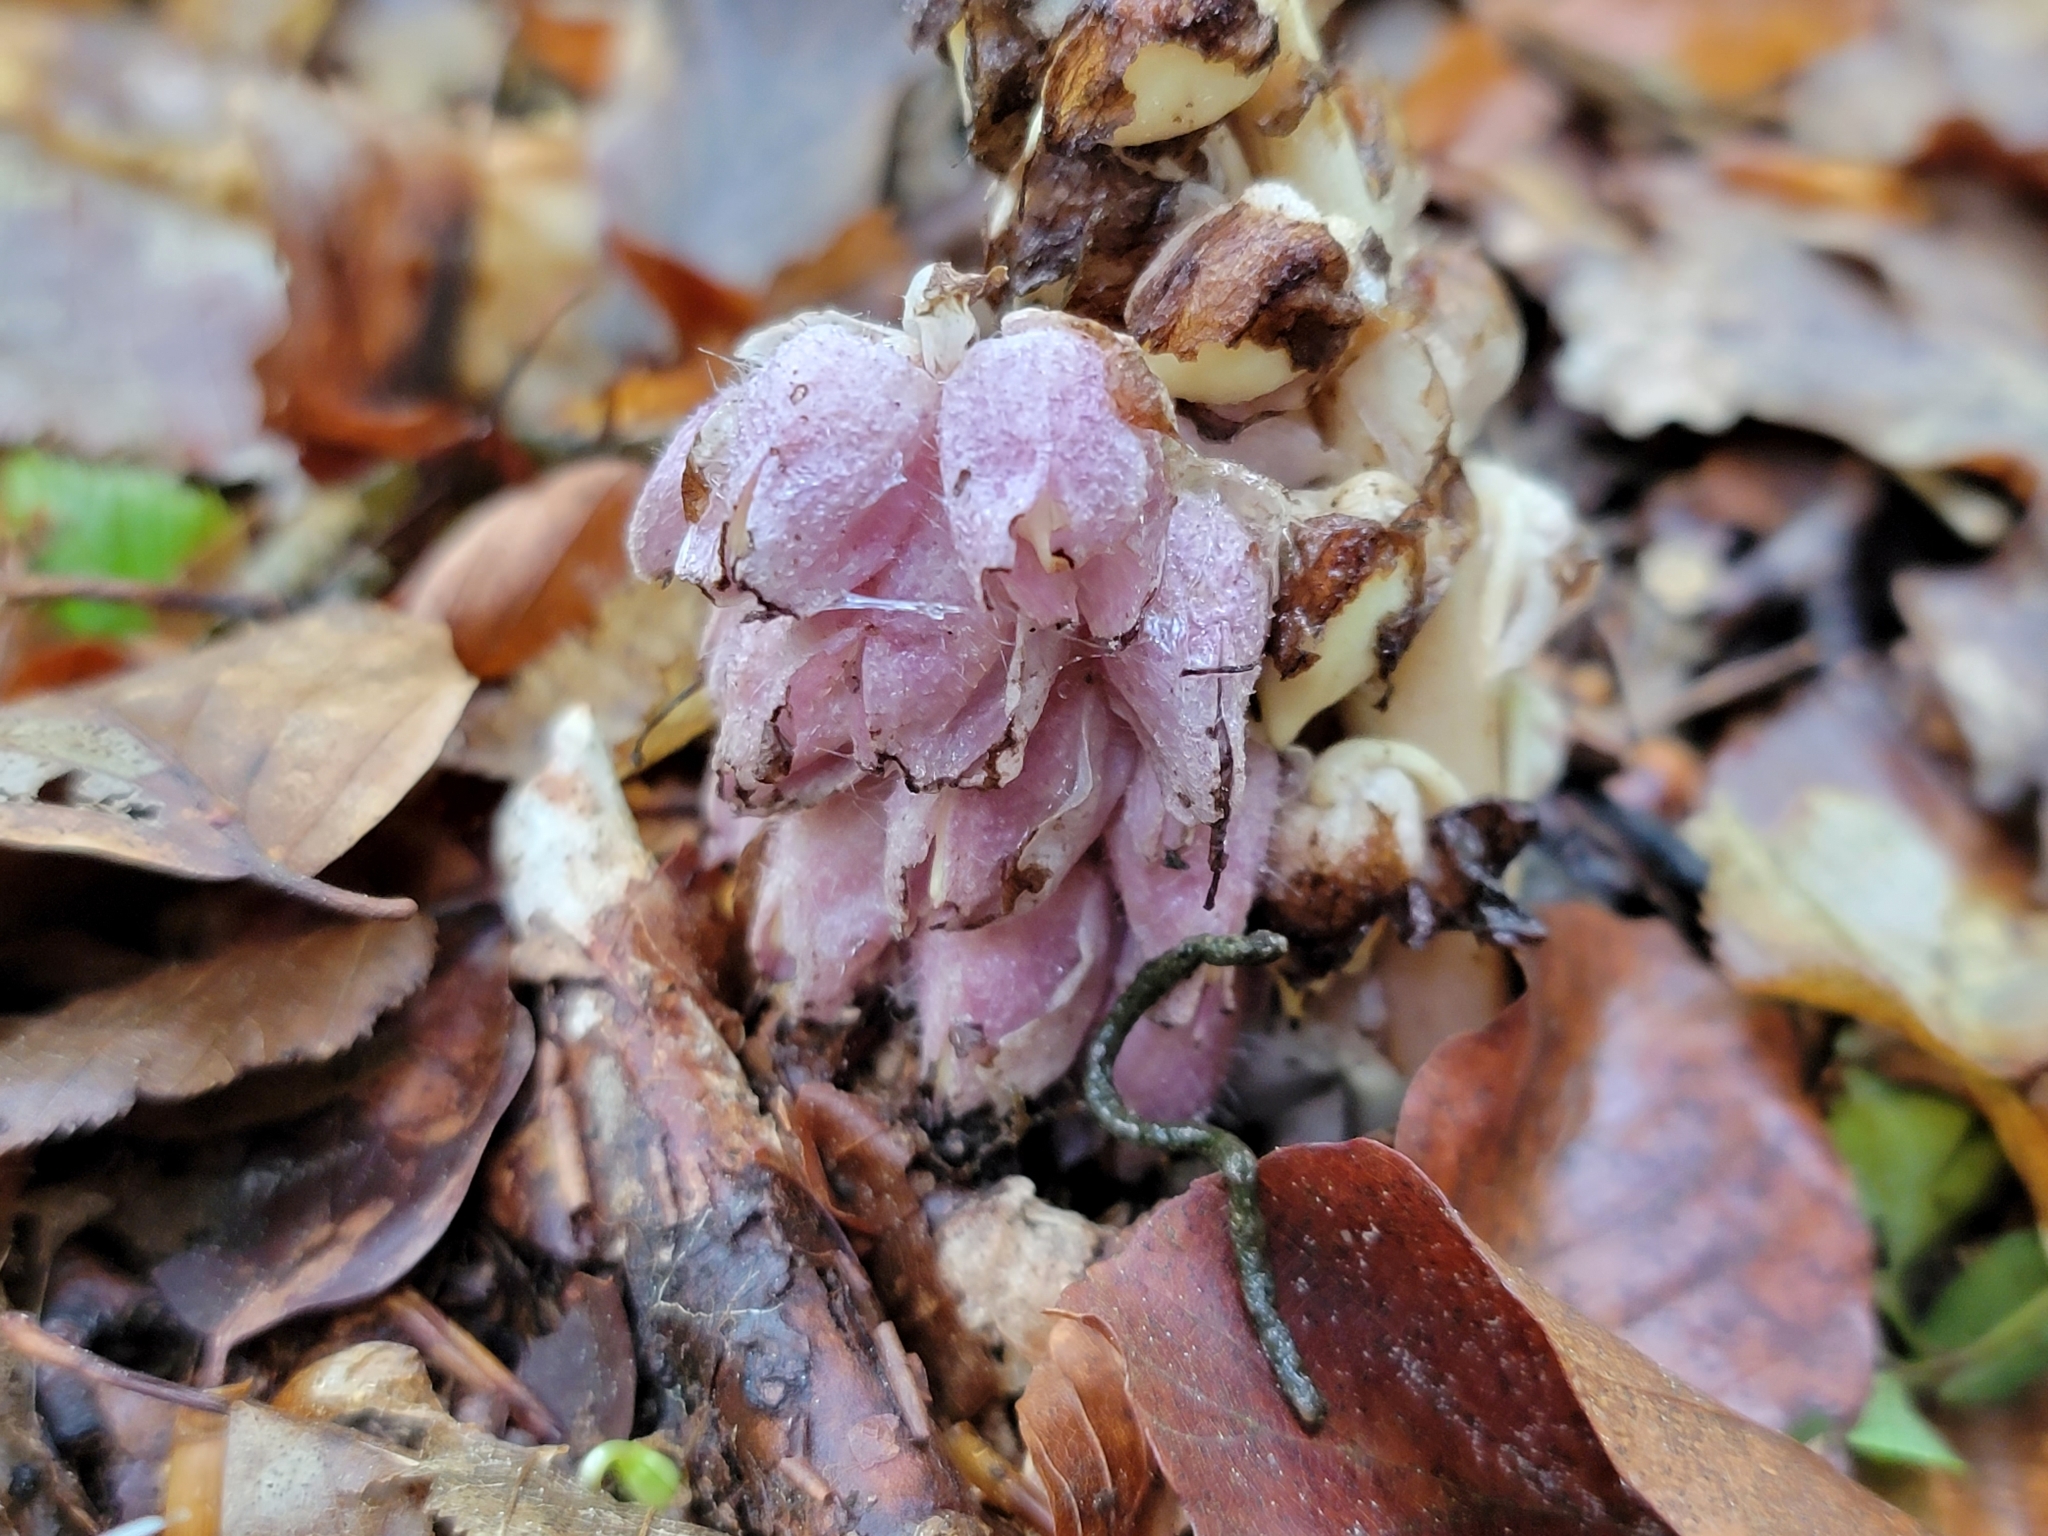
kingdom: Plantae
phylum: Tracheophyta
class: Magnoliopsida
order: Lamiales
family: Orobanchaceae
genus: Lathraea
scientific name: Lathraea squamaria
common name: Toothwort
